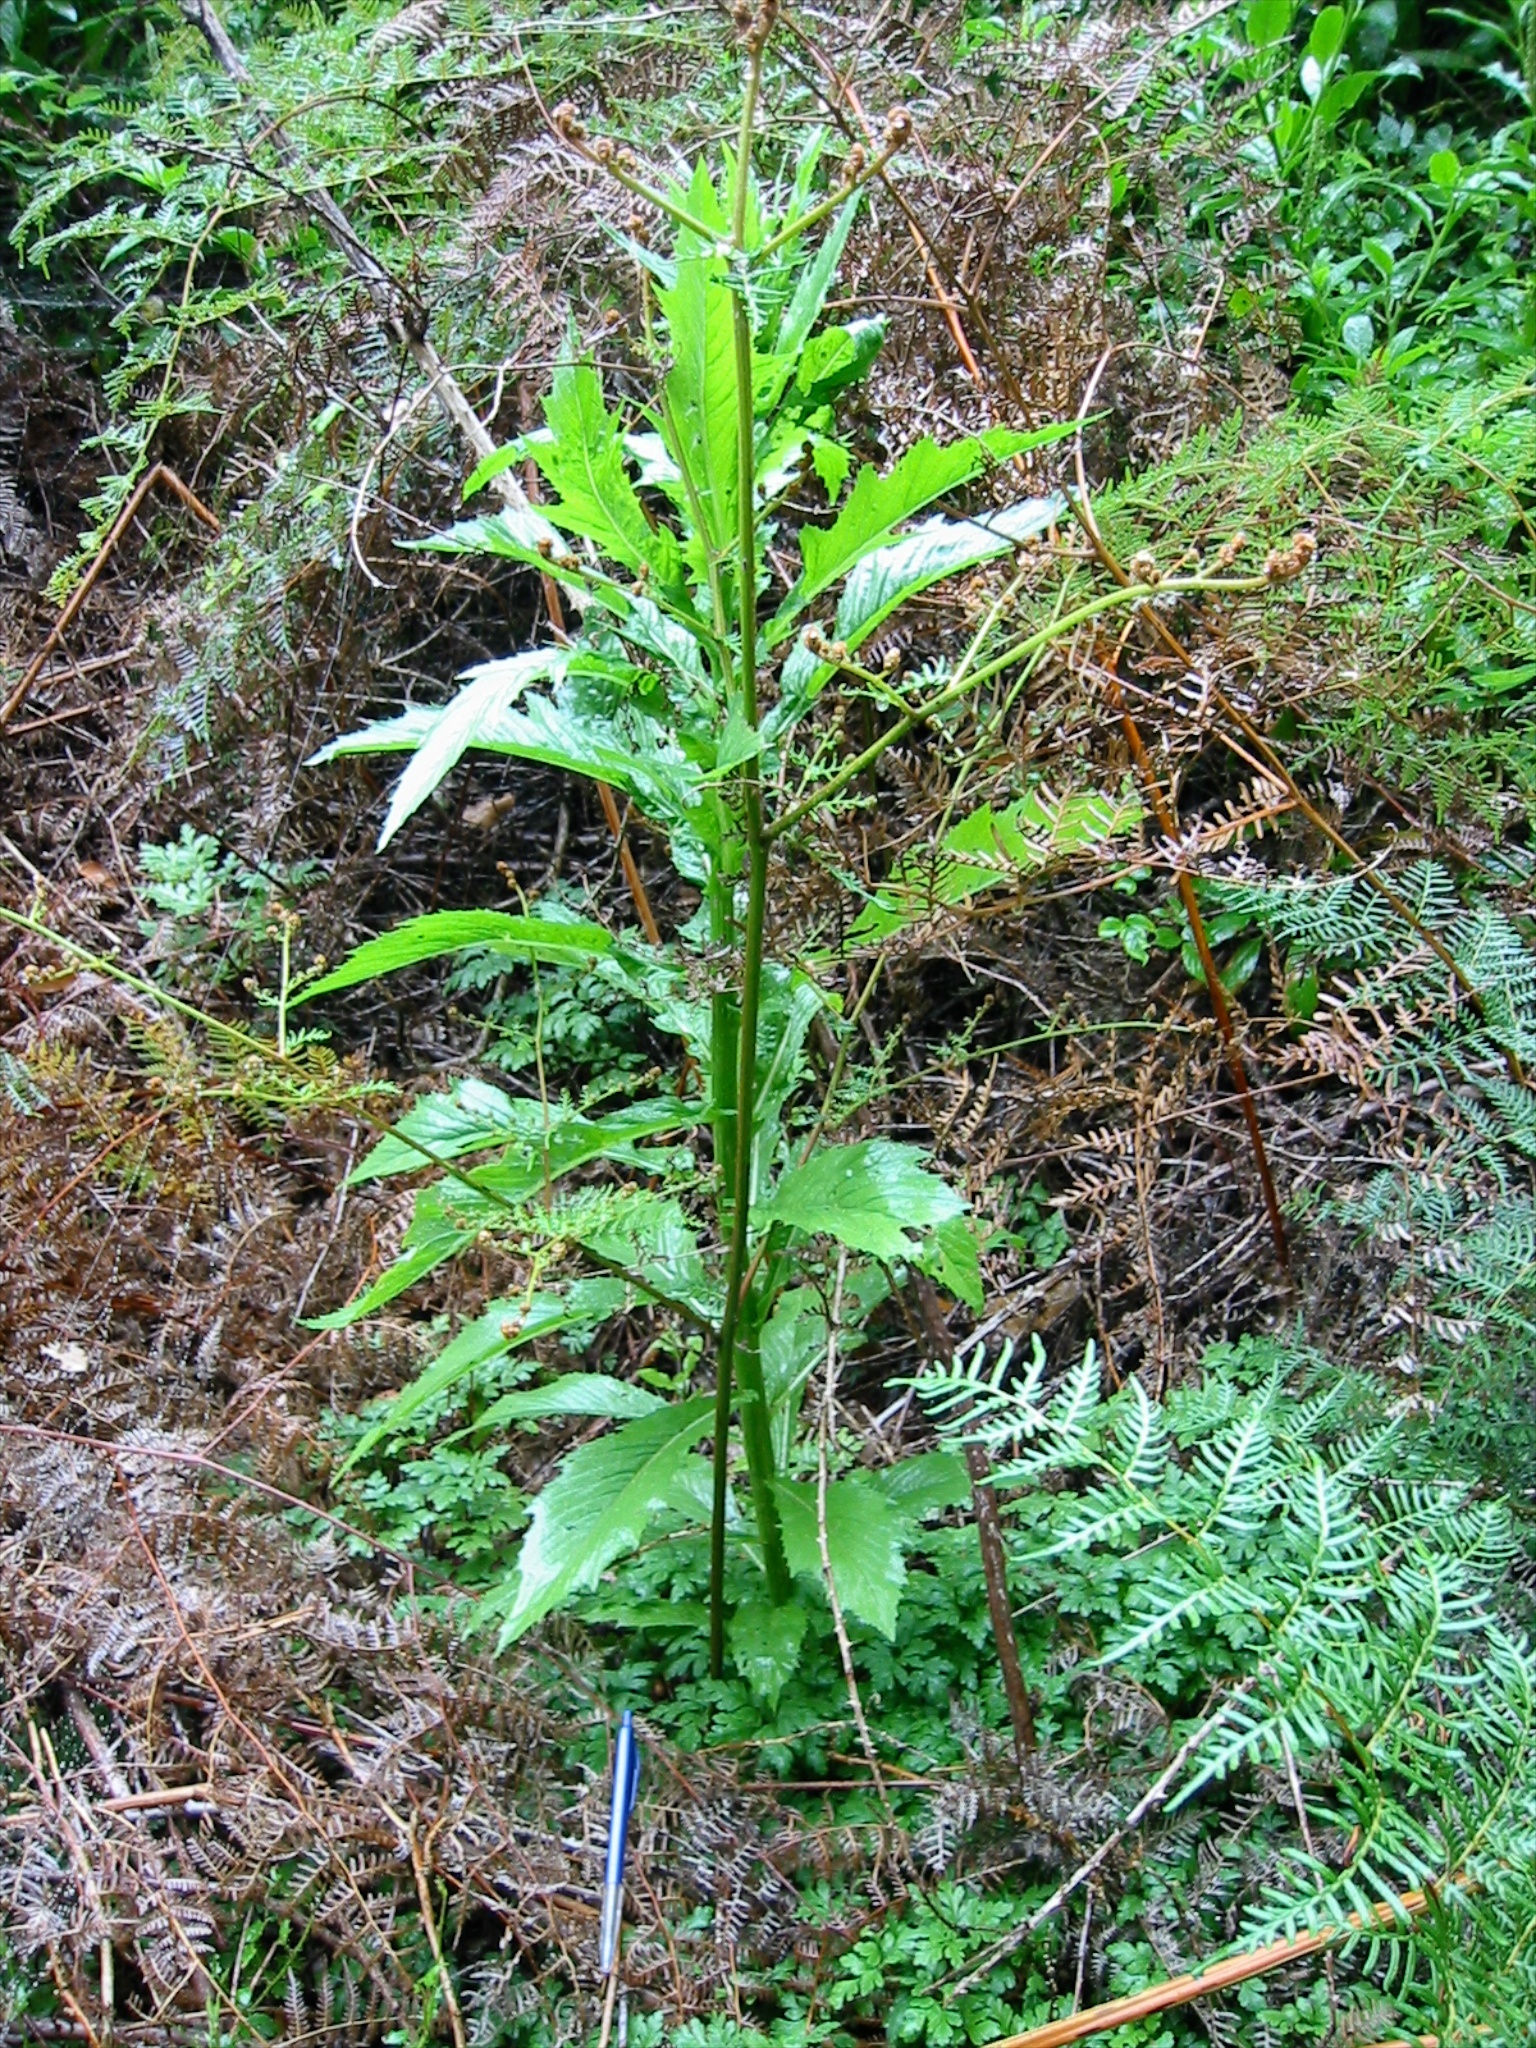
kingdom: Plantae
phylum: Tracheophyta
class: Magnoliopsida
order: Asterales
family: Asteraceae
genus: Erechtites
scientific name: Erechtites valerianifolius
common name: Tropical burnweed
